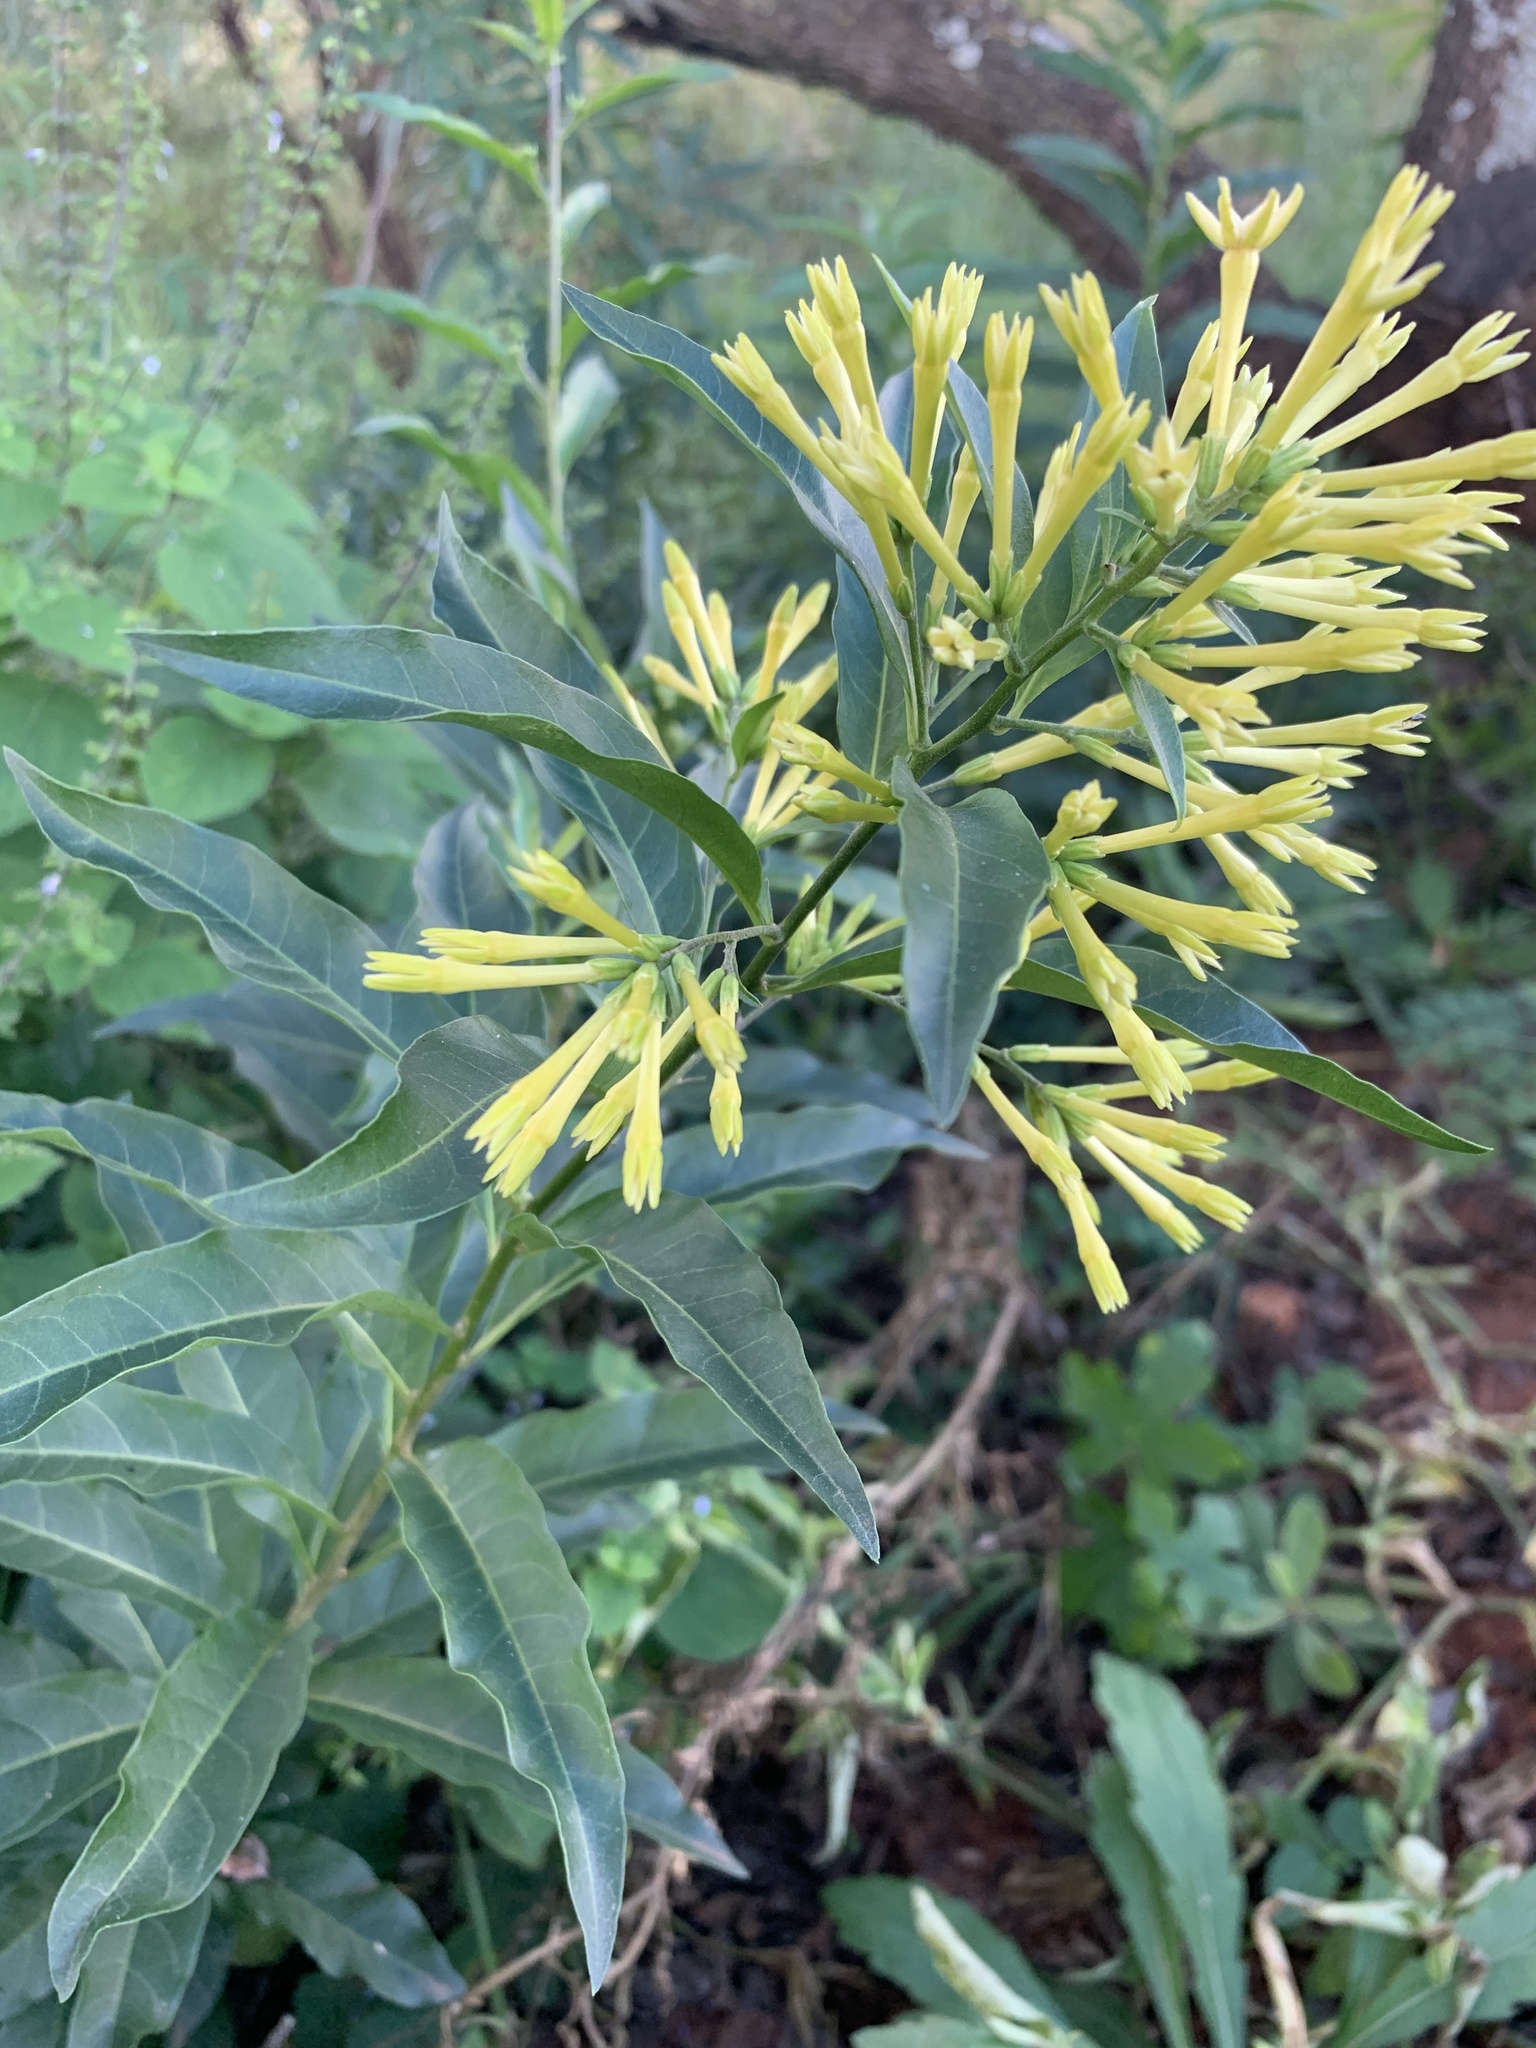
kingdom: Plantae
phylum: Tracheophyta
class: Magnoliopsida
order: Solanales
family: Solanaceae
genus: Cestrum
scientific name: Cestrum parqui
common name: Chilean cestrum
